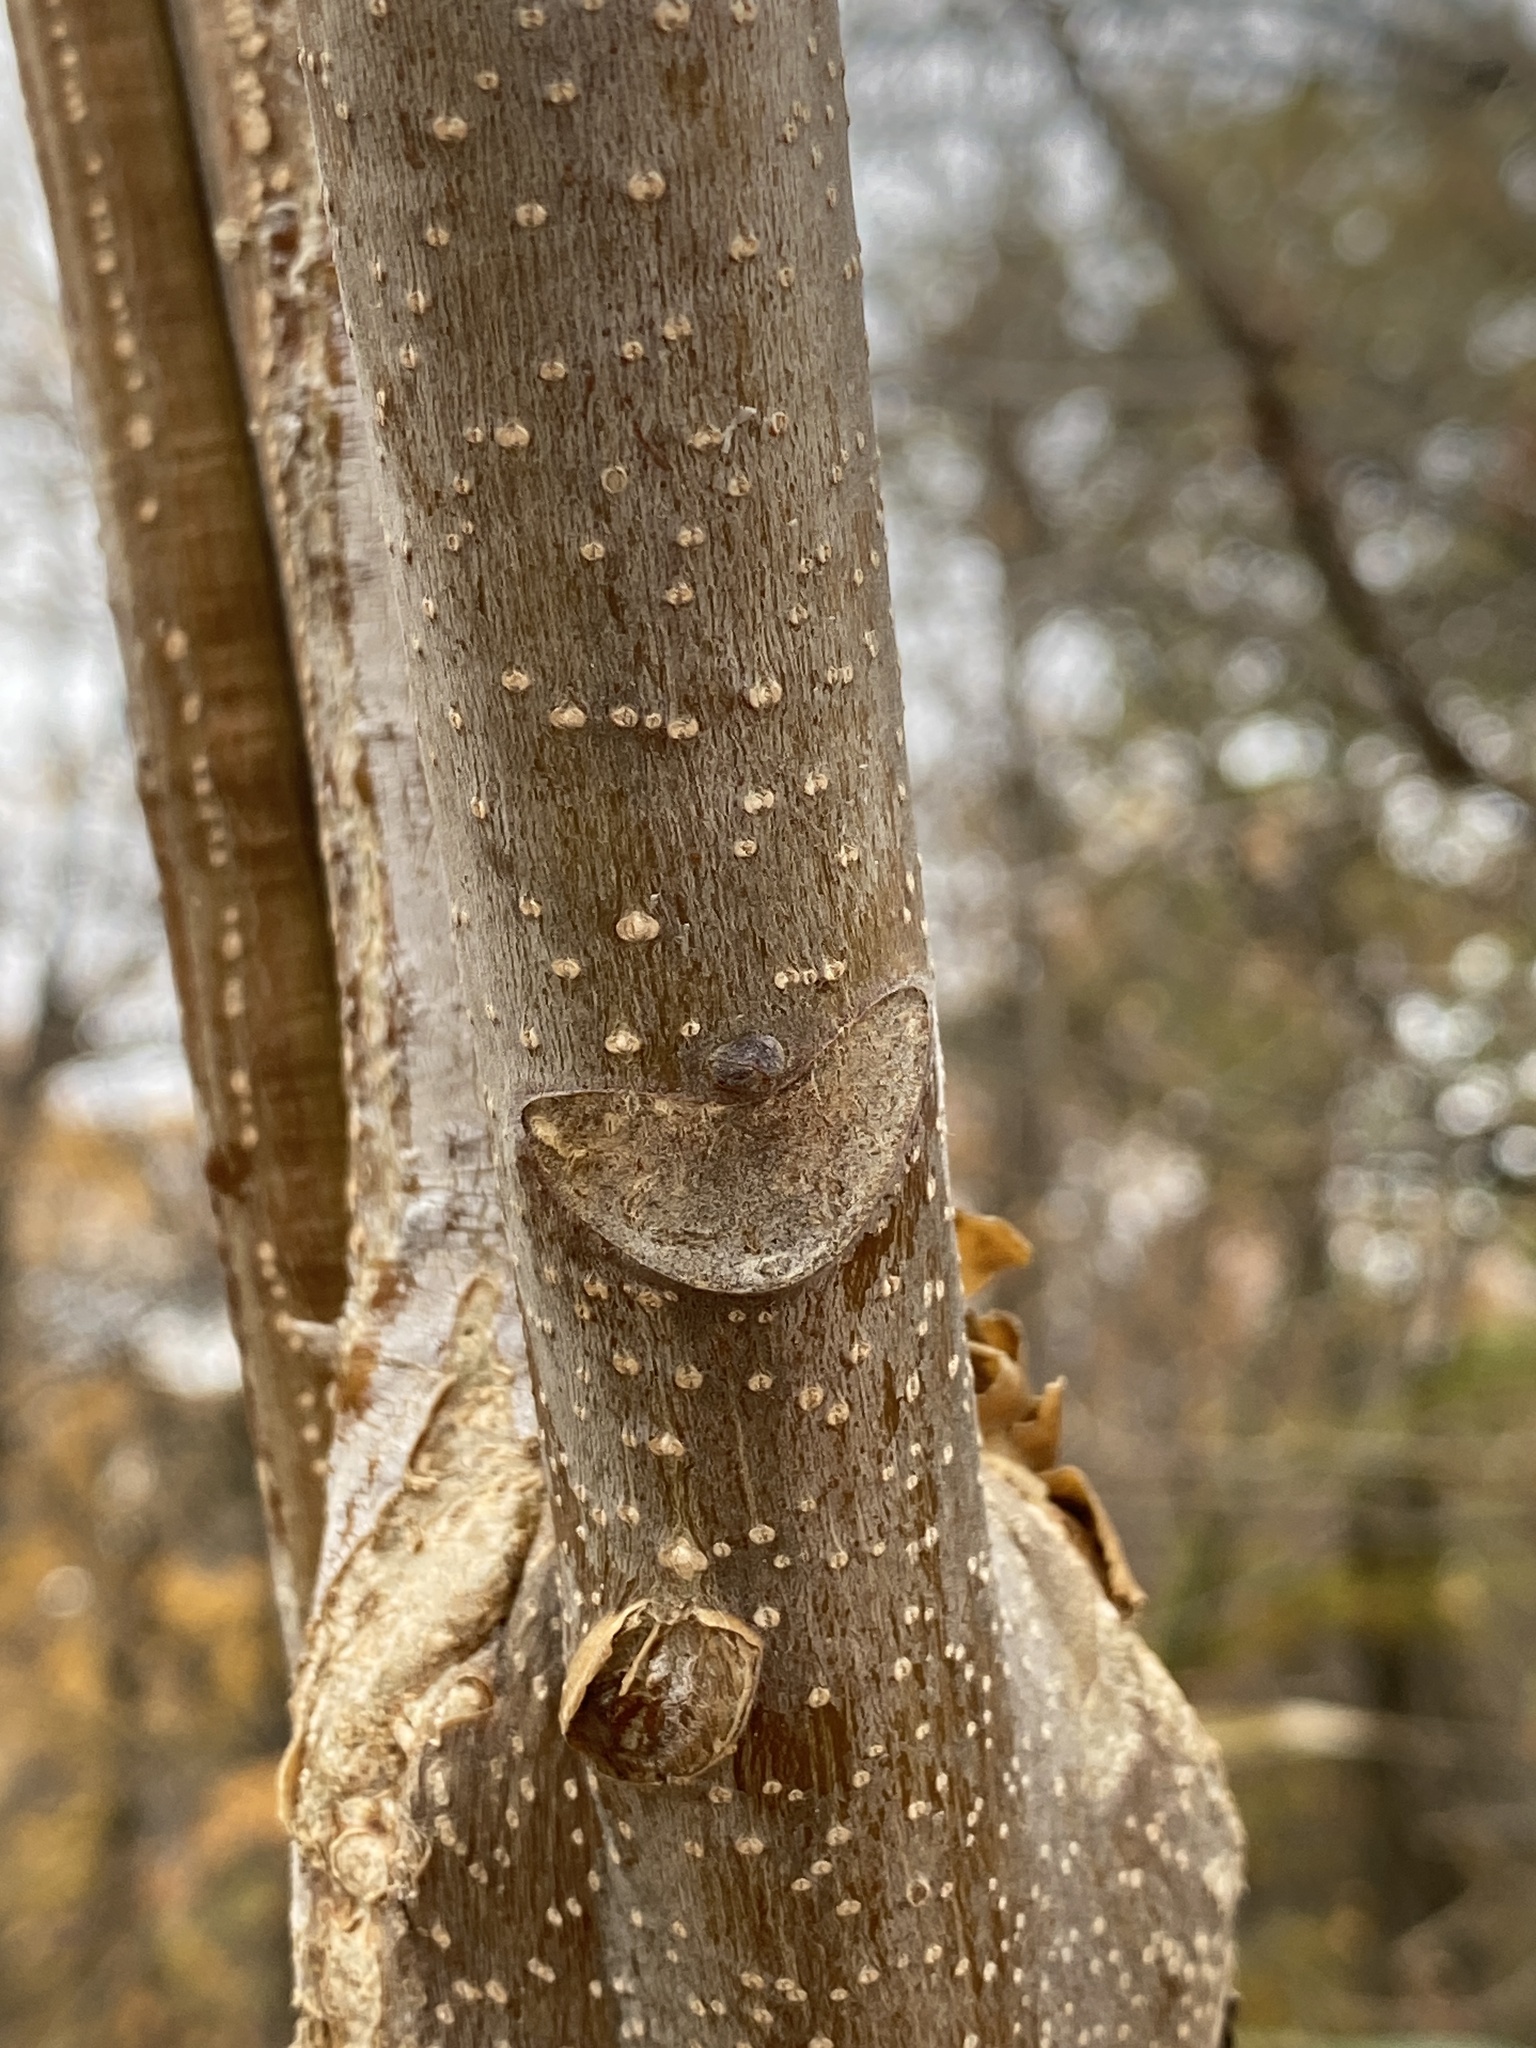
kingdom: Plantae
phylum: Tracheophyta
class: Magnoliopsida
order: Sapindales
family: Simaroubaceae
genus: Ailanthus
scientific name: Ailanthus altissima
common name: Tree-of-heaven
